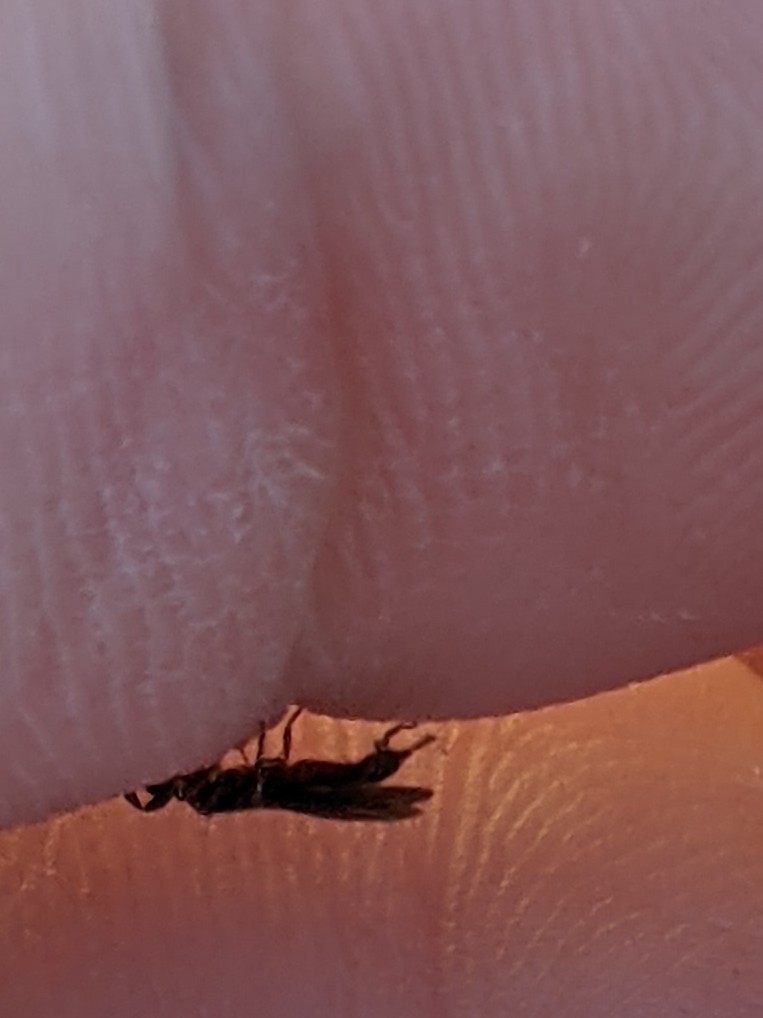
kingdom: Animalia
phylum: Arthropoda
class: Insecta
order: Embioptera
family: Oligotomidae
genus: Oligotoma
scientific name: Oligotoma nigra
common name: Black webspinner
